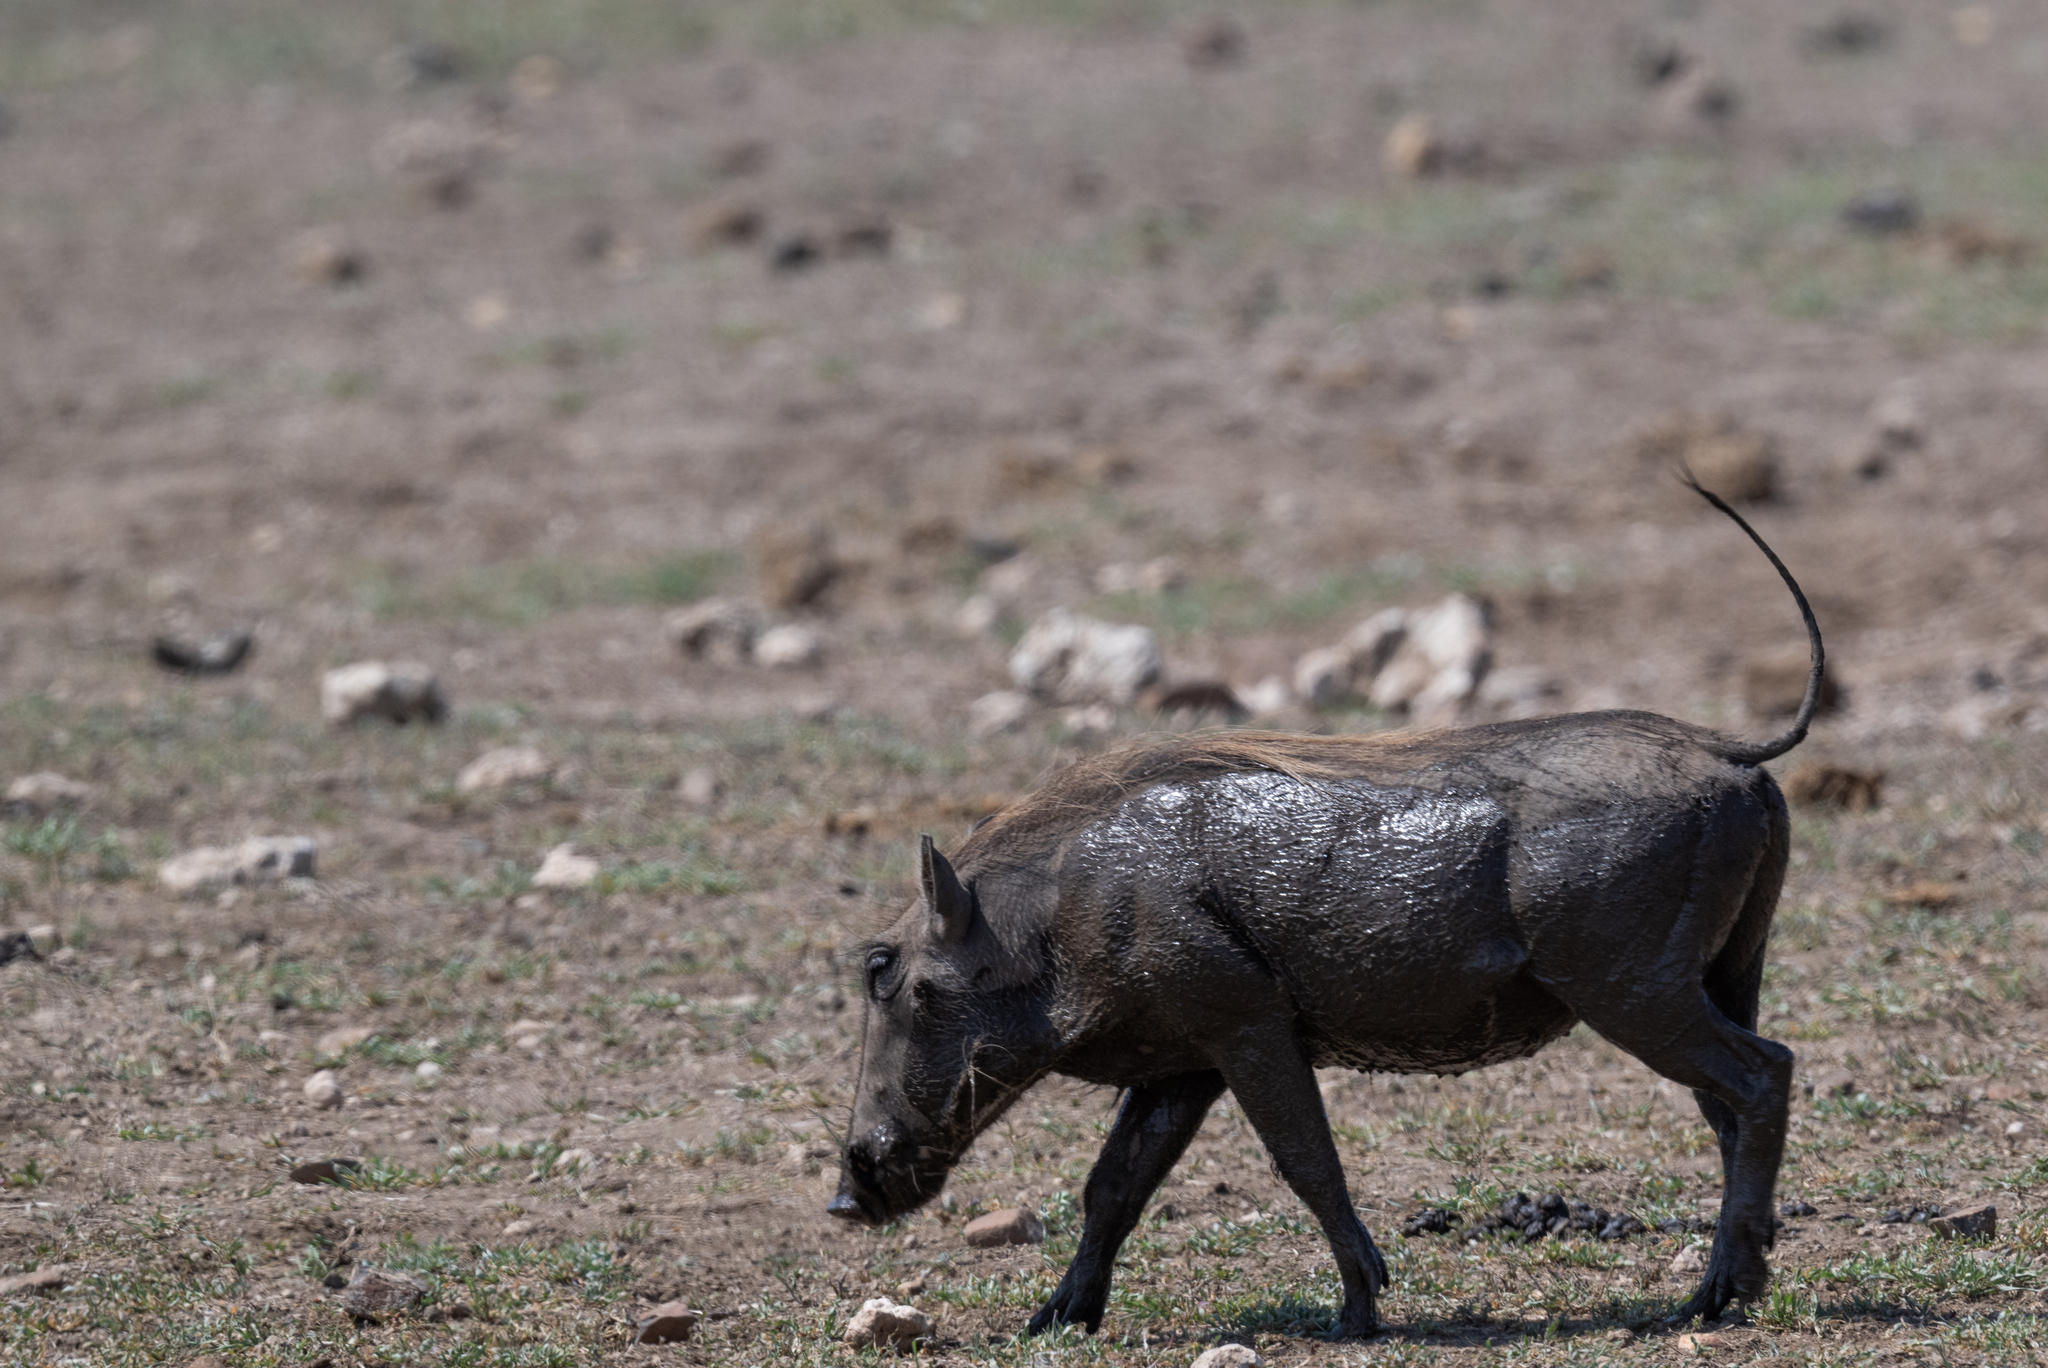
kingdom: Animalia
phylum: Chordata
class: Mammalia
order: Artiodactyla
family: Suidae
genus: Phacochoerus
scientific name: Phacochoerus africanus
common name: Common warthog
